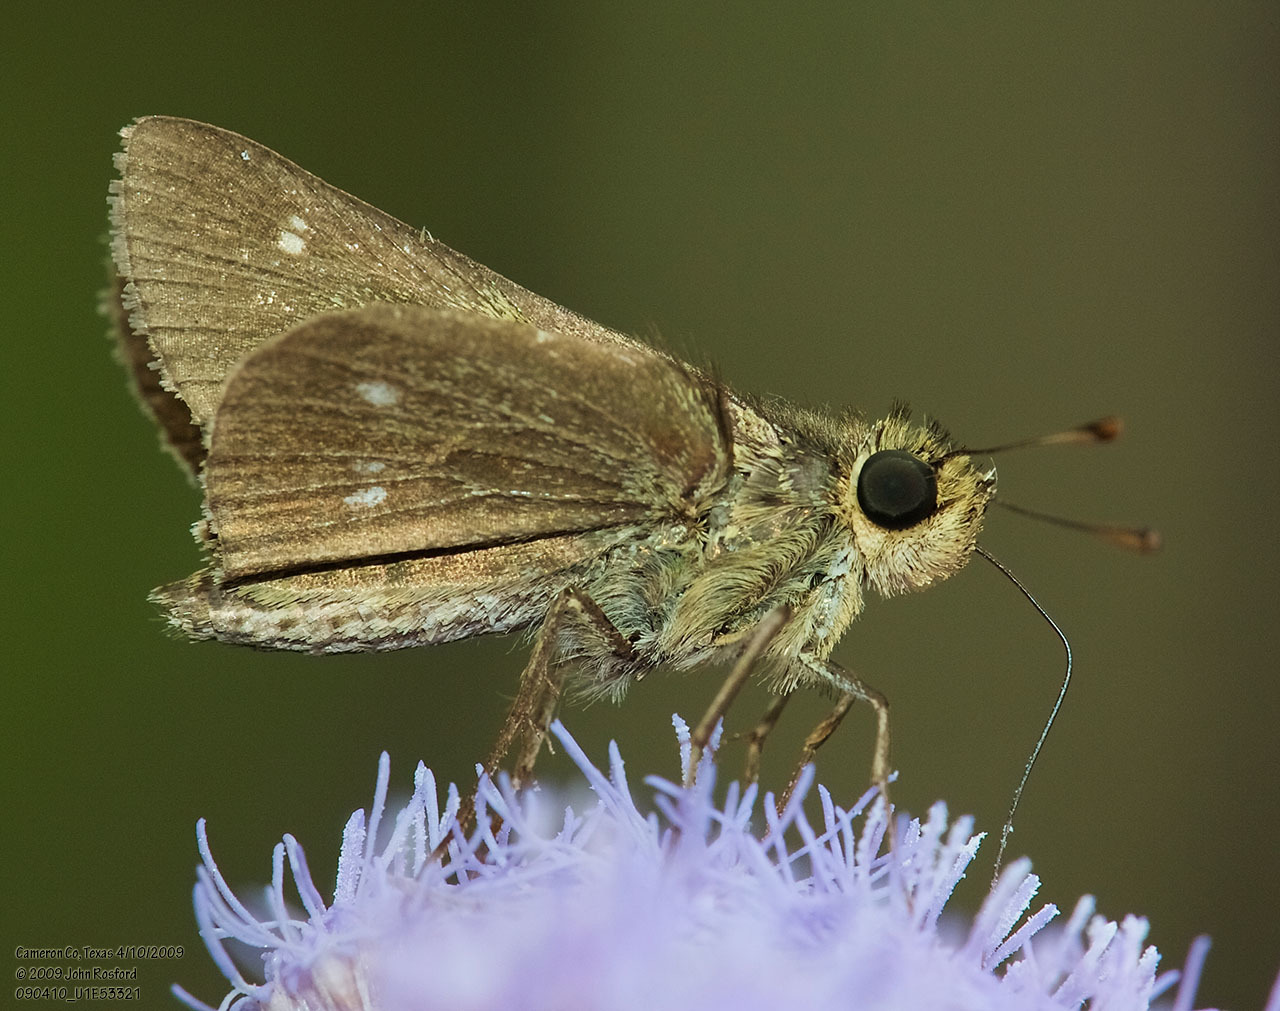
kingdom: Animalia
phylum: Arthropoda
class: Insecta
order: Lepidoptera
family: Hesperiidae
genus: Panoquina
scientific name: Panoquina panoquinoides
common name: Beach skipper
